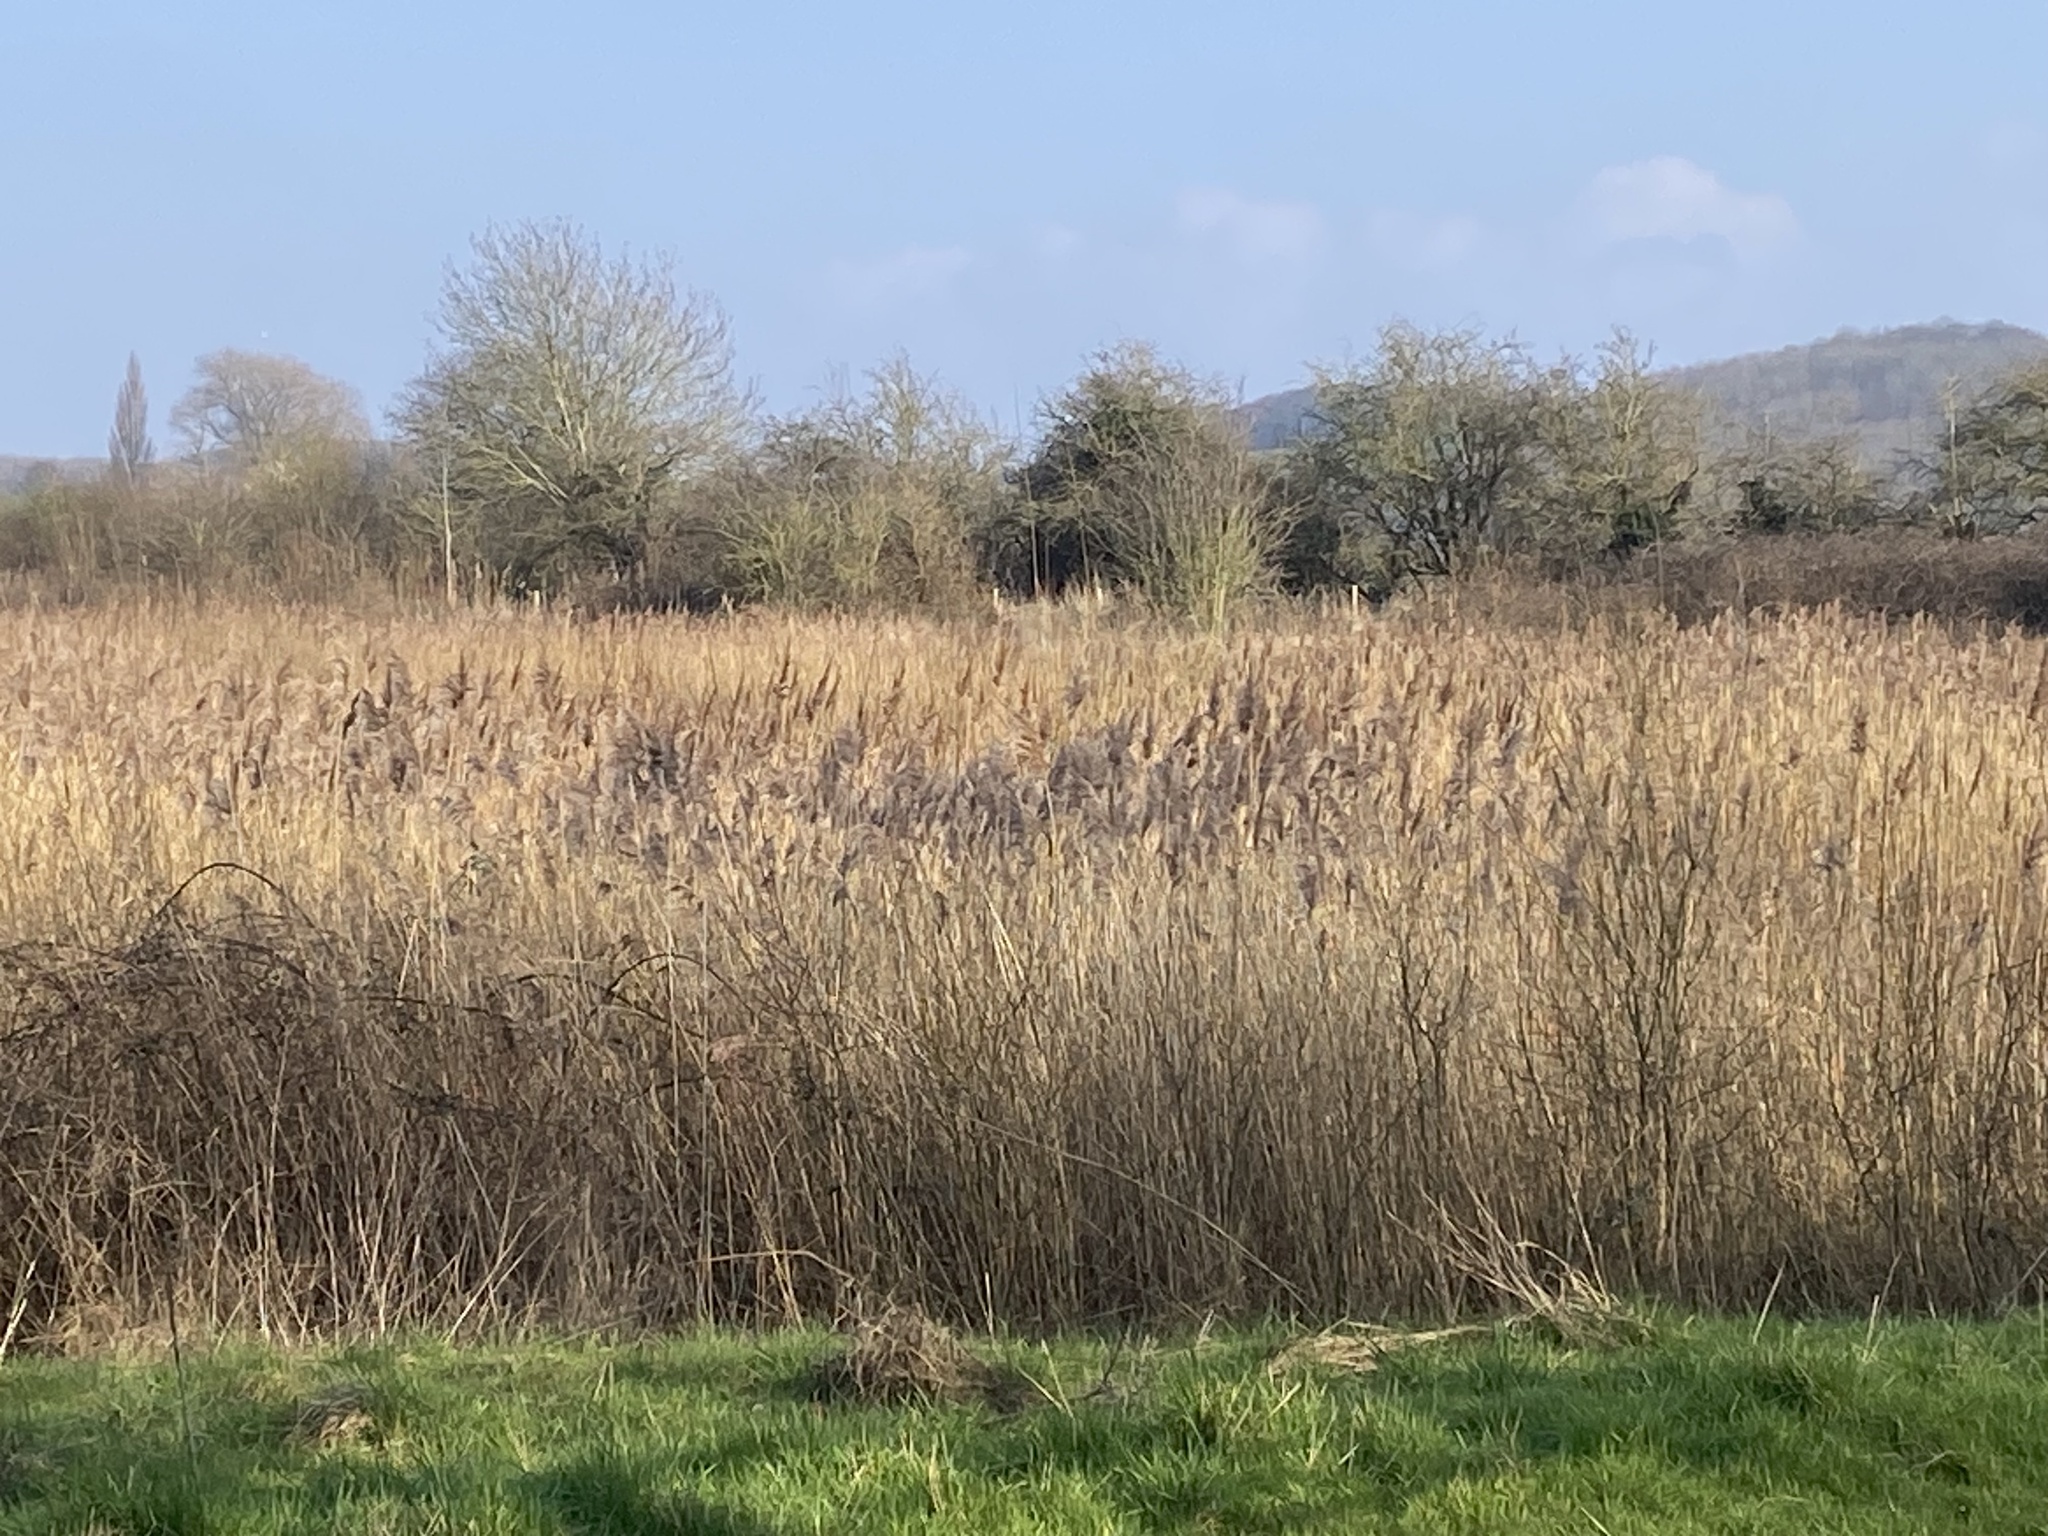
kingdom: Plantae
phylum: Tracheophyta
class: Liliopsida
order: Poales
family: Poaceae
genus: Phragmites
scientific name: Phragmites australis
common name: Common reed
